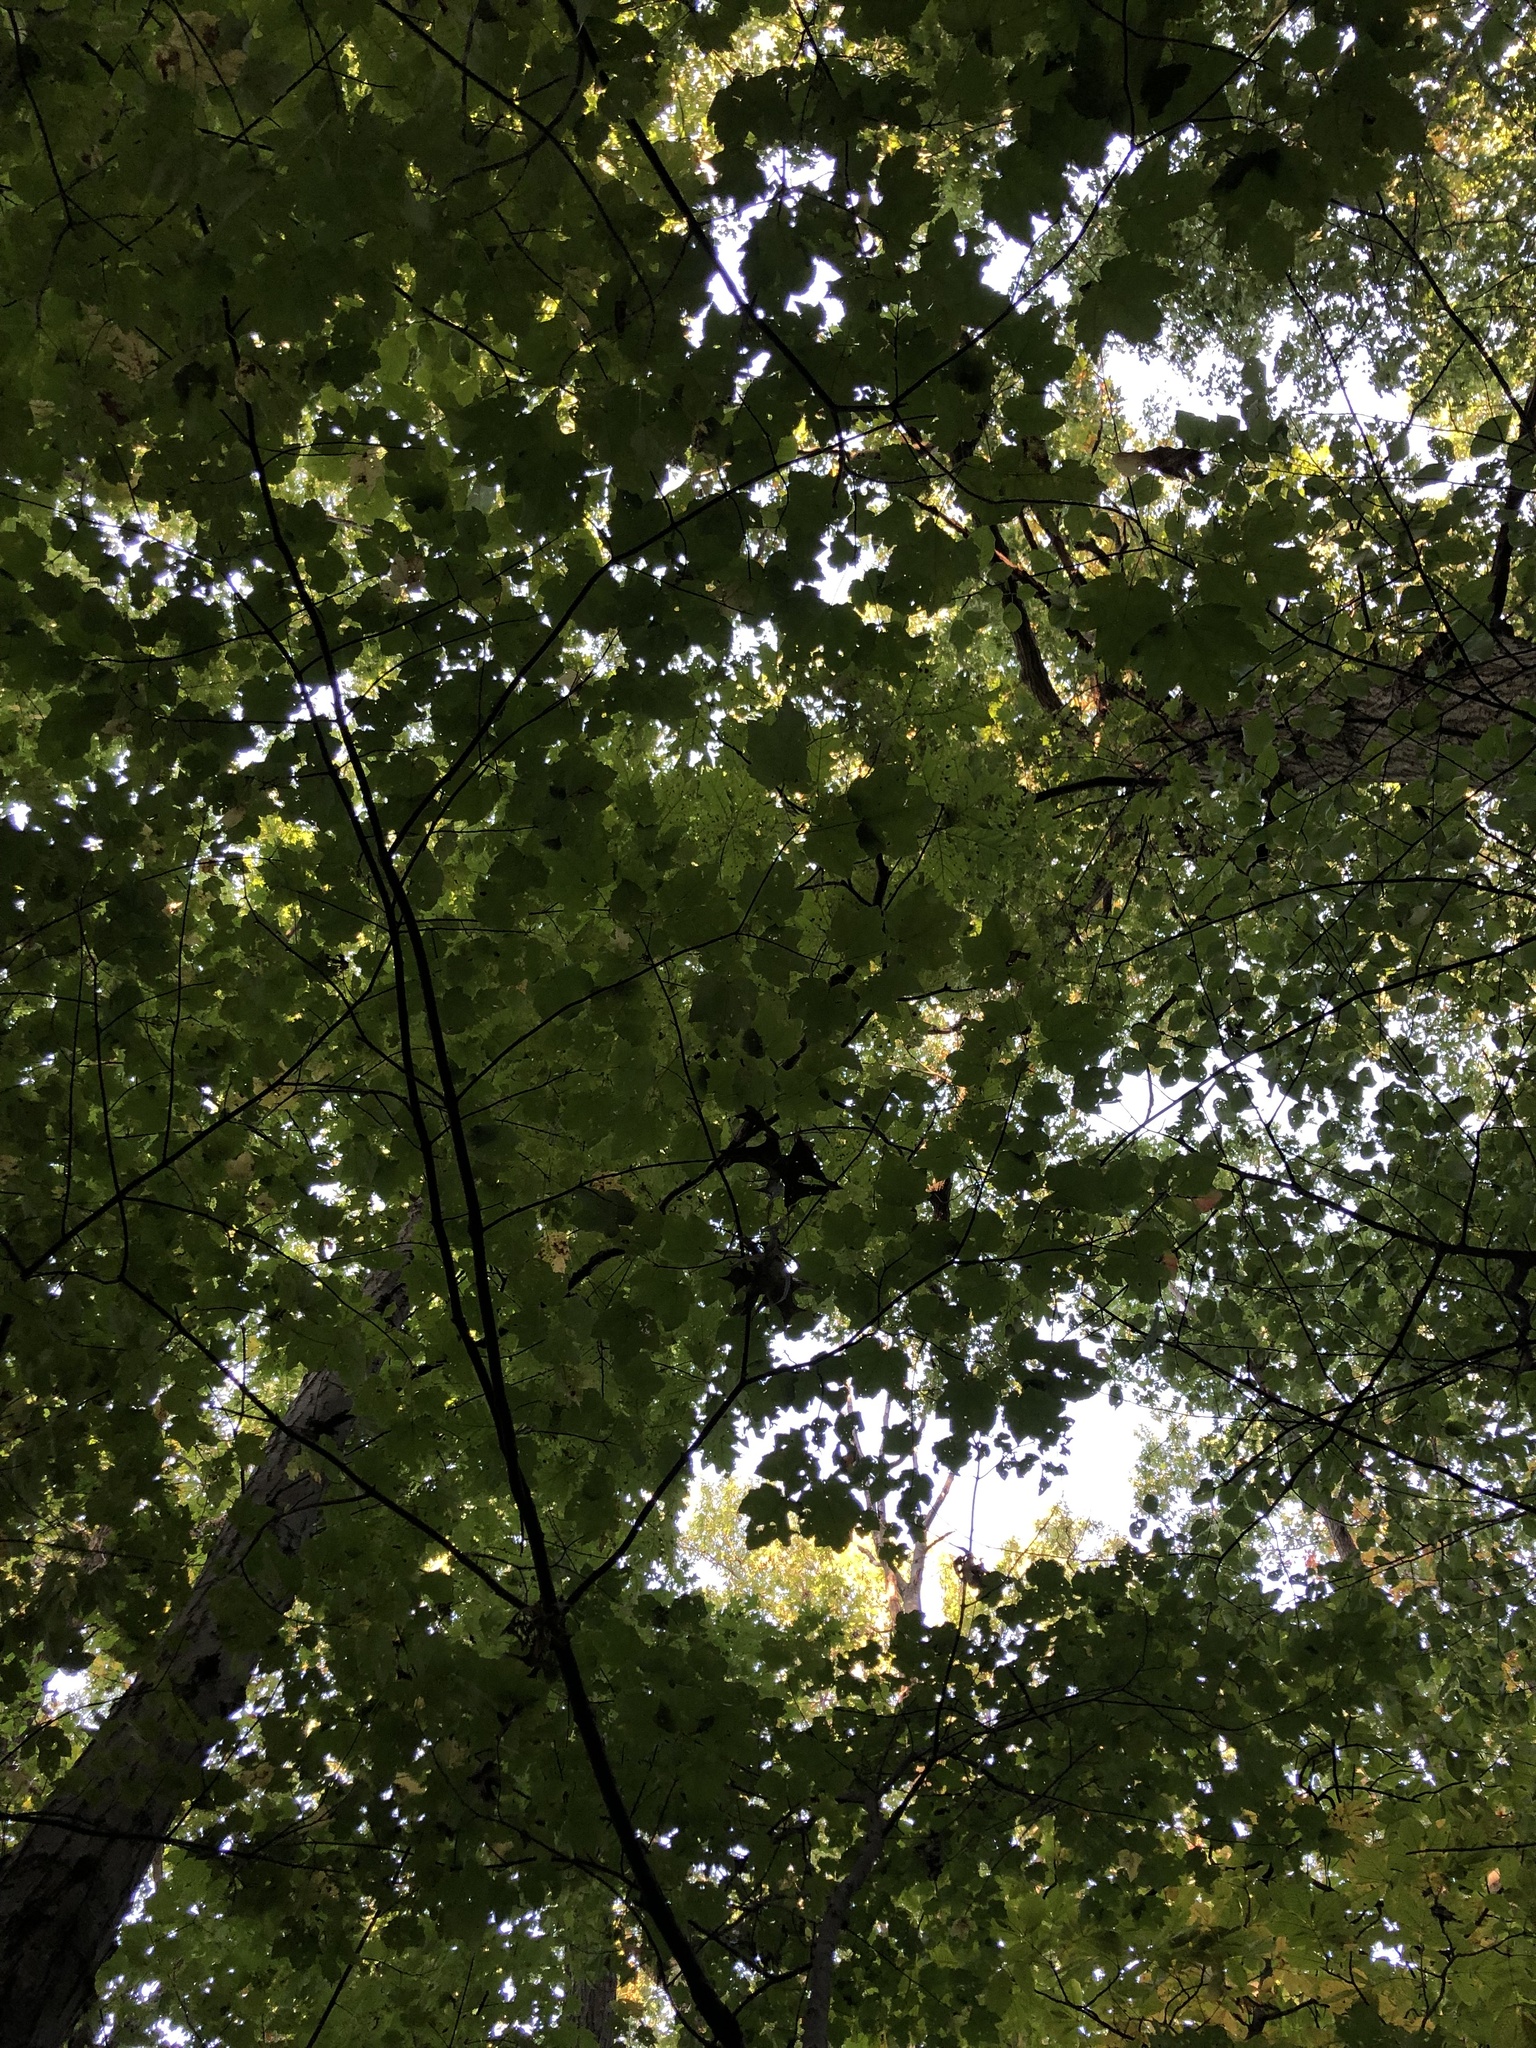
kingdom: Fungi
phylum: Basidiomycota
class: Agaricomycetes
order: Agaricales
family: Entolomataceae
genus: Entoloma
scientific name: Entoloma abortivum
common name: Aborted entoloma
